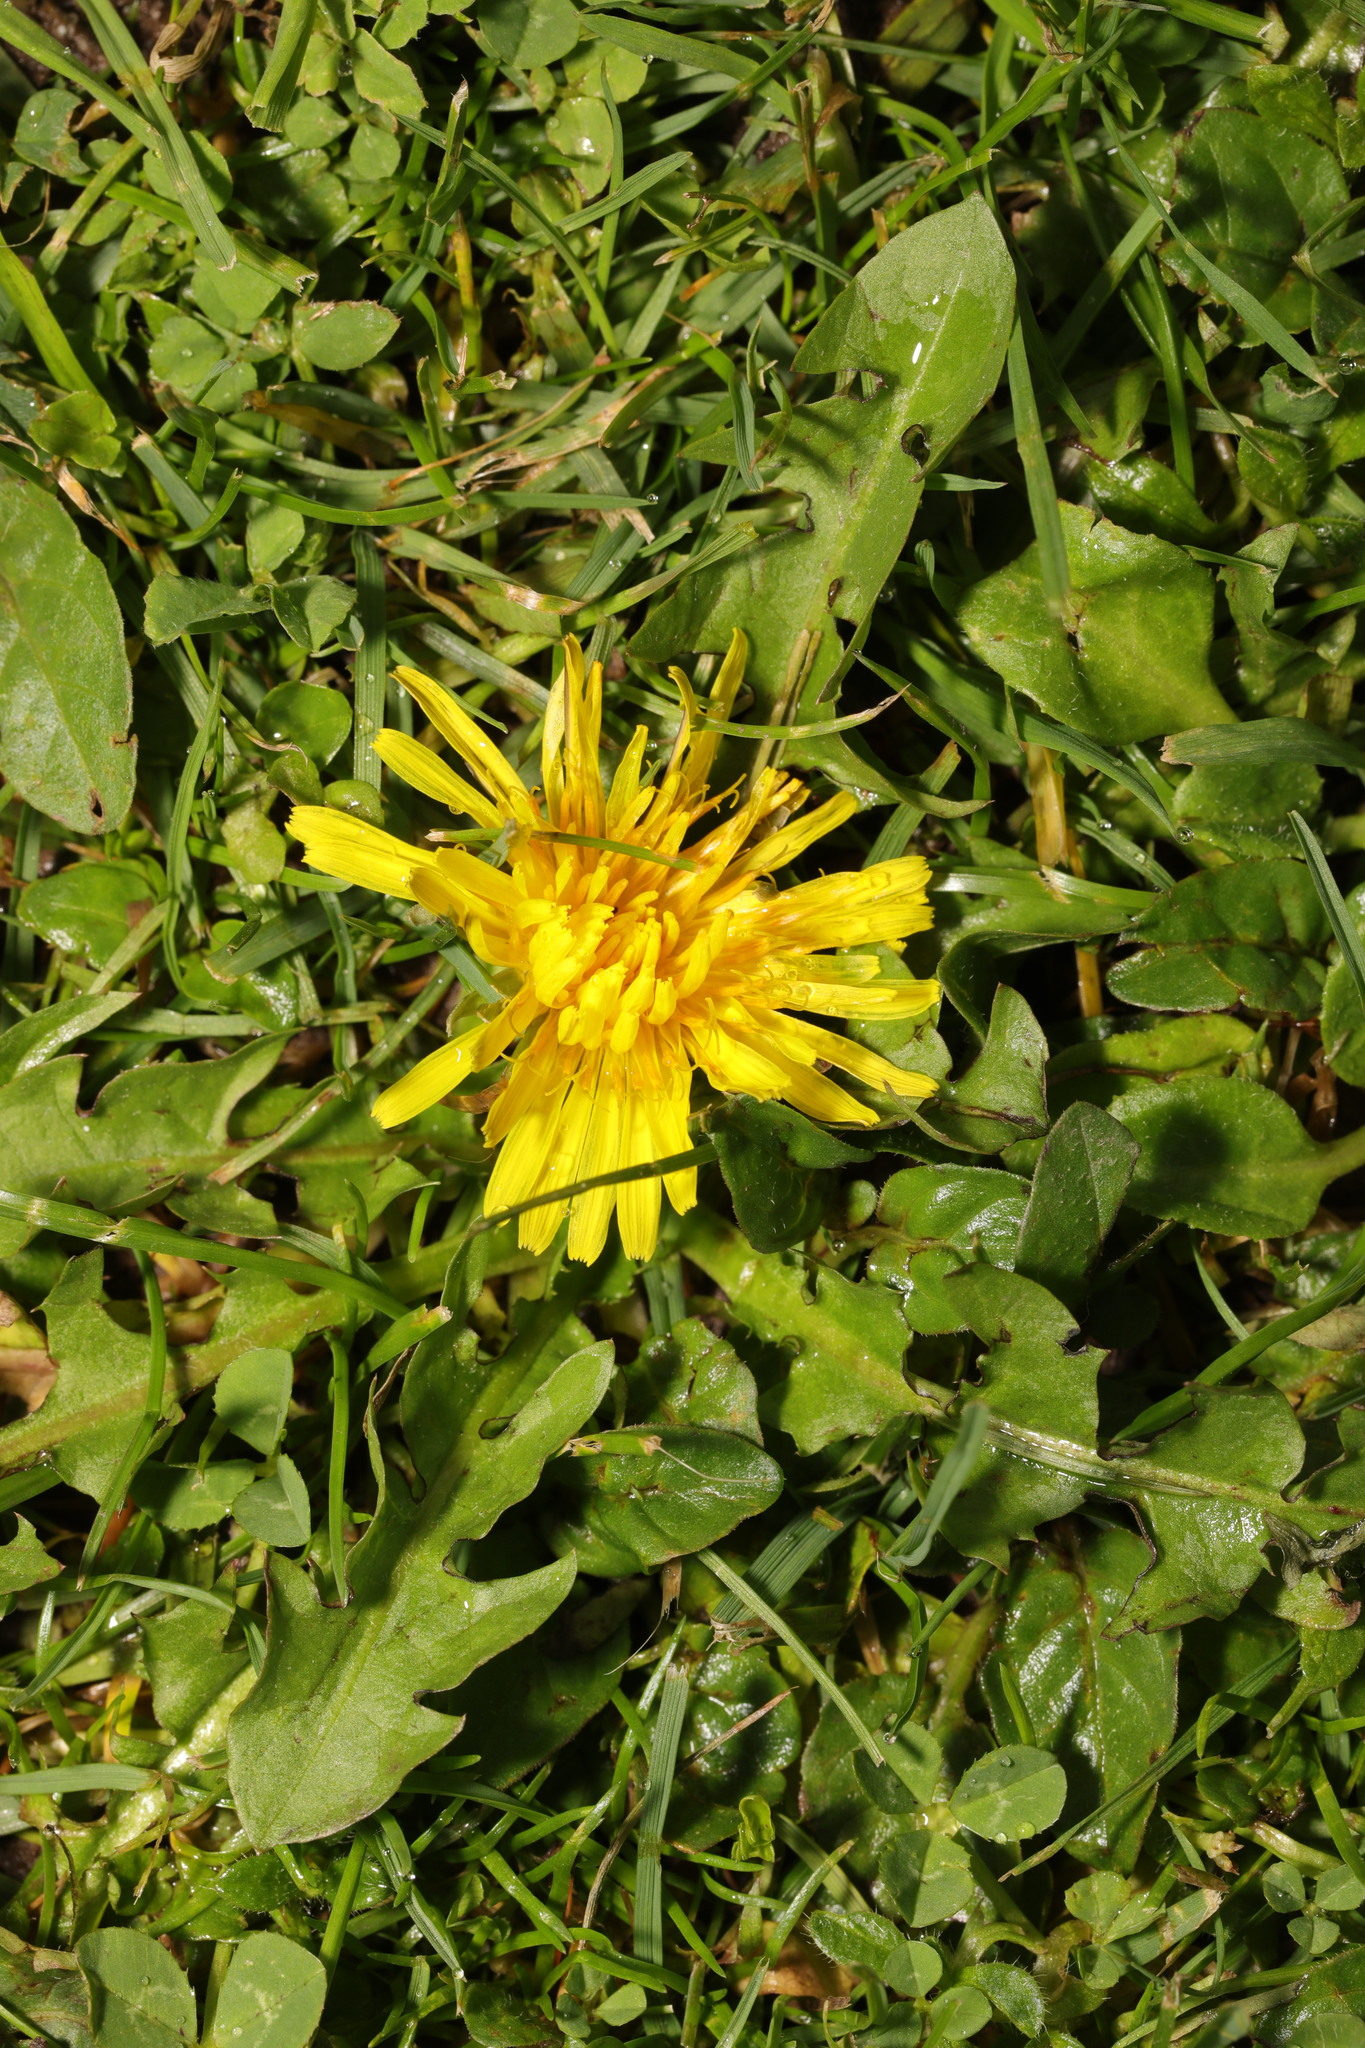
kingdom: Plantae
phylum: Tracheophyta
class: Magnoliopsida
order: Asterales
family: Asteraceae
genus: Taraxacum
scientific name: Taraxacum officinale
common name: Common dandelion
